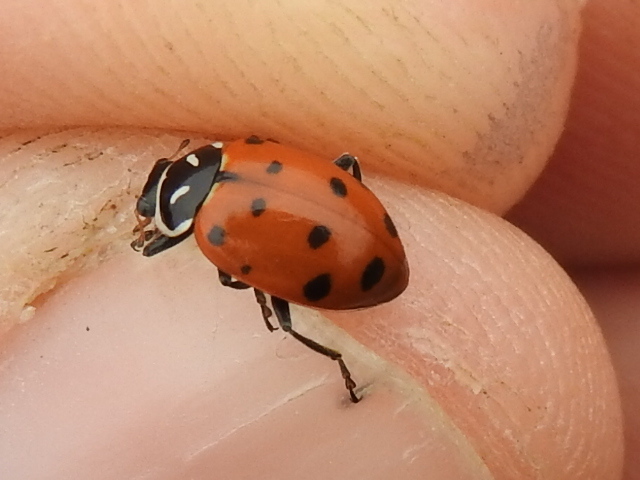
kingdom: Animalia
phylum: Arthropoda
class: Insecta
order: Coleoptera
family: Coccinellidae
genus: Hippodamia
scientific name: Hippodamia convergens
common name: Convergent lady beetle
